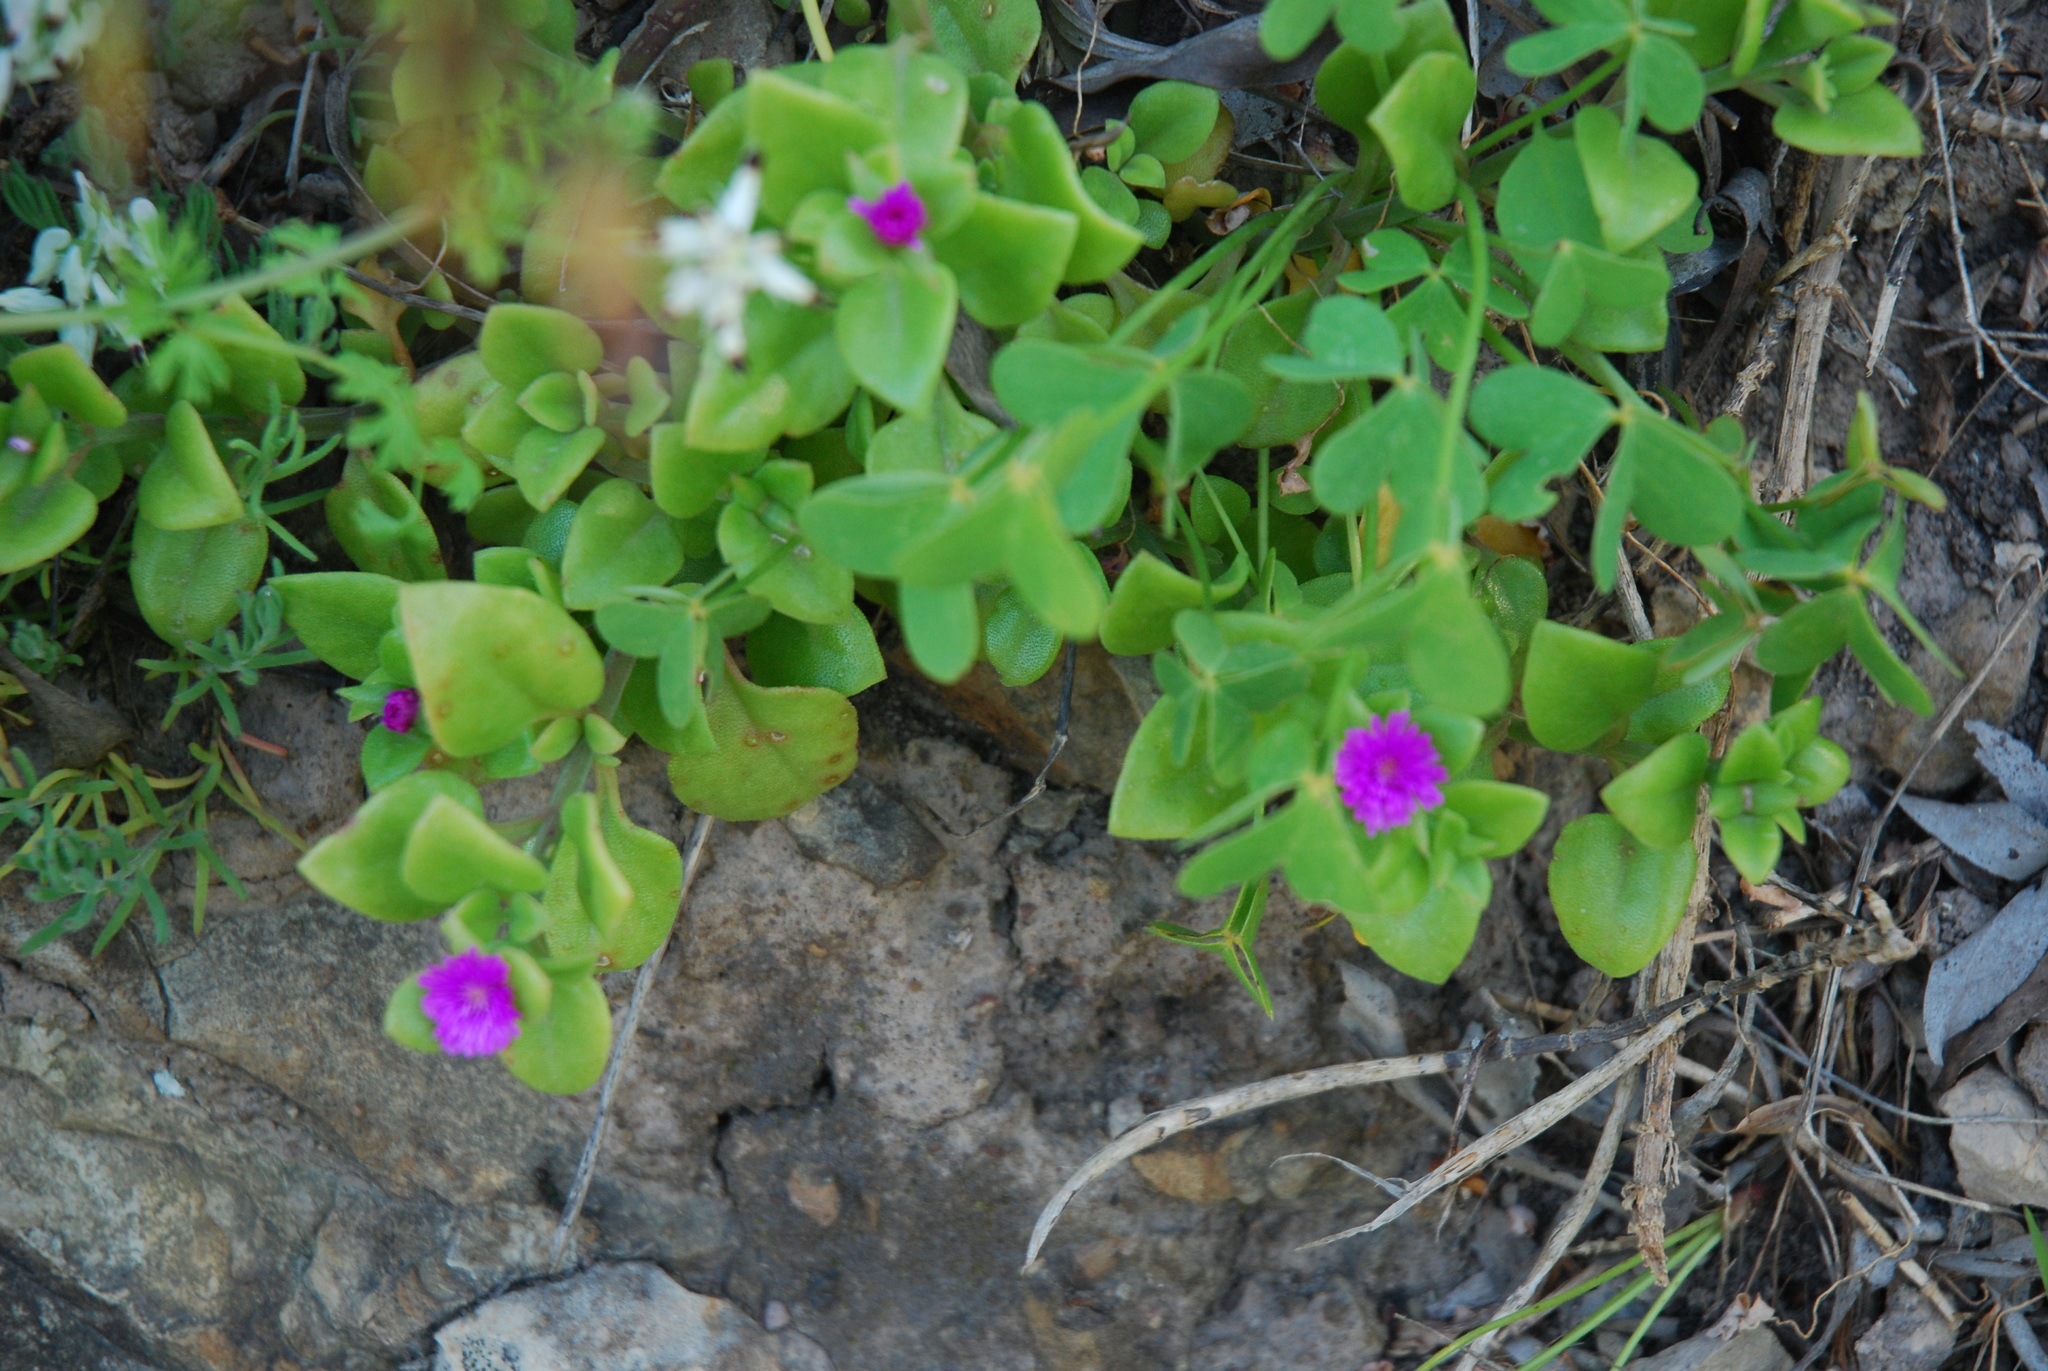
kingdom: Plantae
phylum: Tracheophyta
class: Magnoliopsida
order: Caryophyllales
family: Aizoaceae
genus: Mesembryanthemum
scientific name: Mesembryanthemum cordifolium
